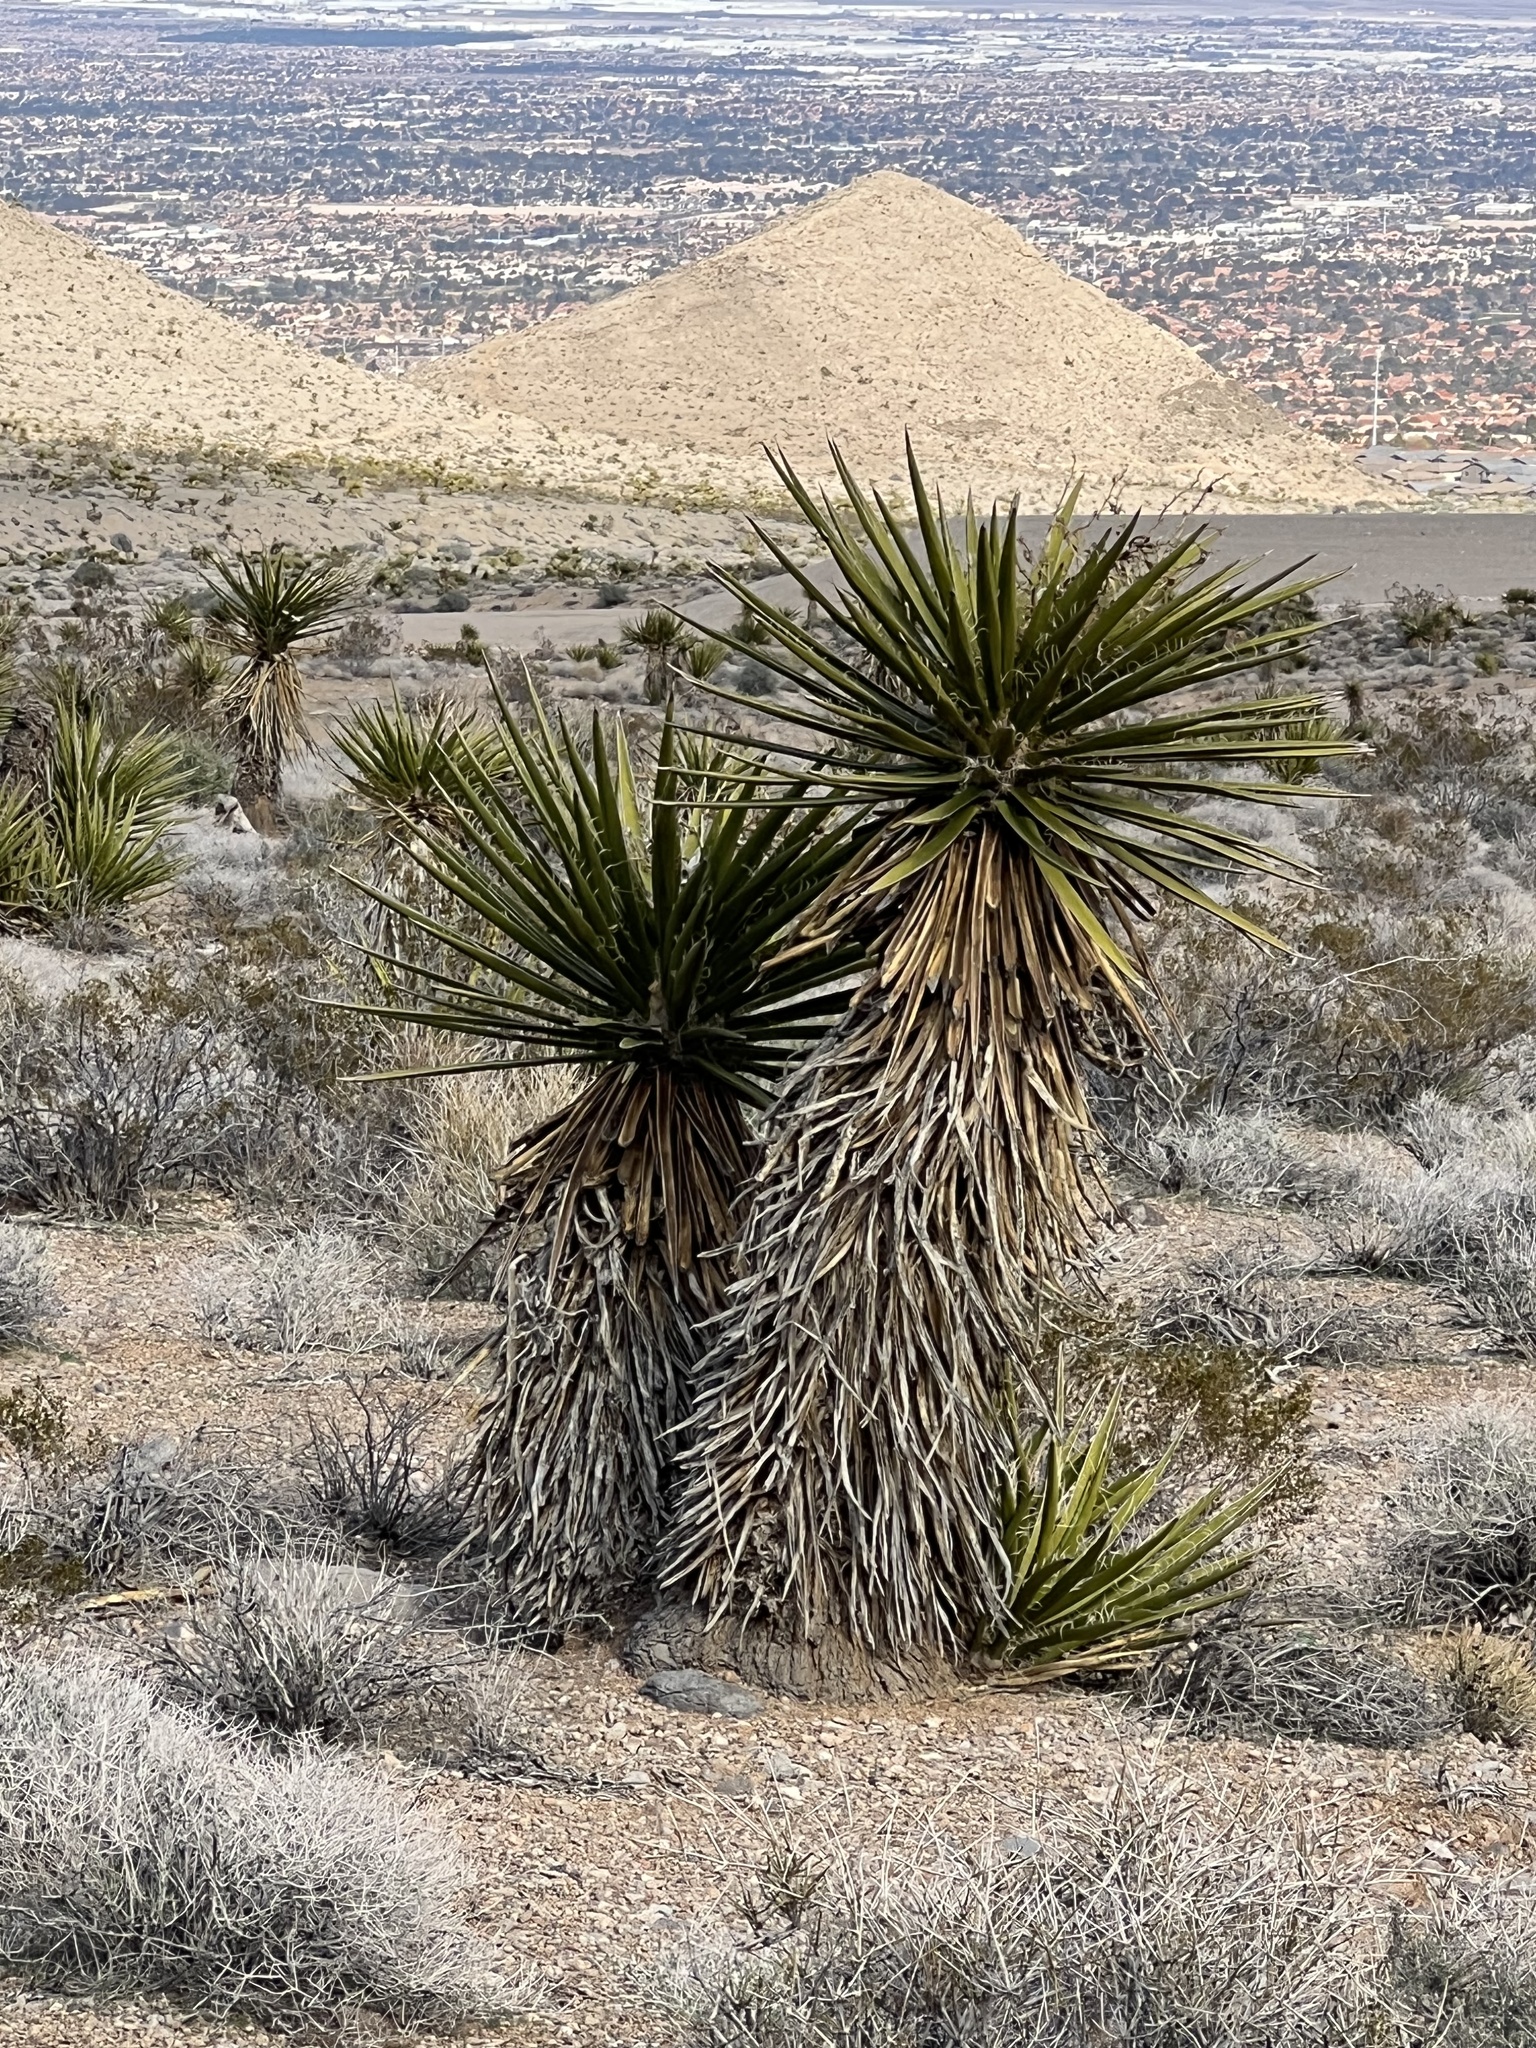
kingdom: Plantae
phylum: Tracheophyta
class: Liliopsida
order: Asparagales
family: Asparagaceae
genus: Yucca
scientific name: Yucca schidigera
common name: Mojave yucca
